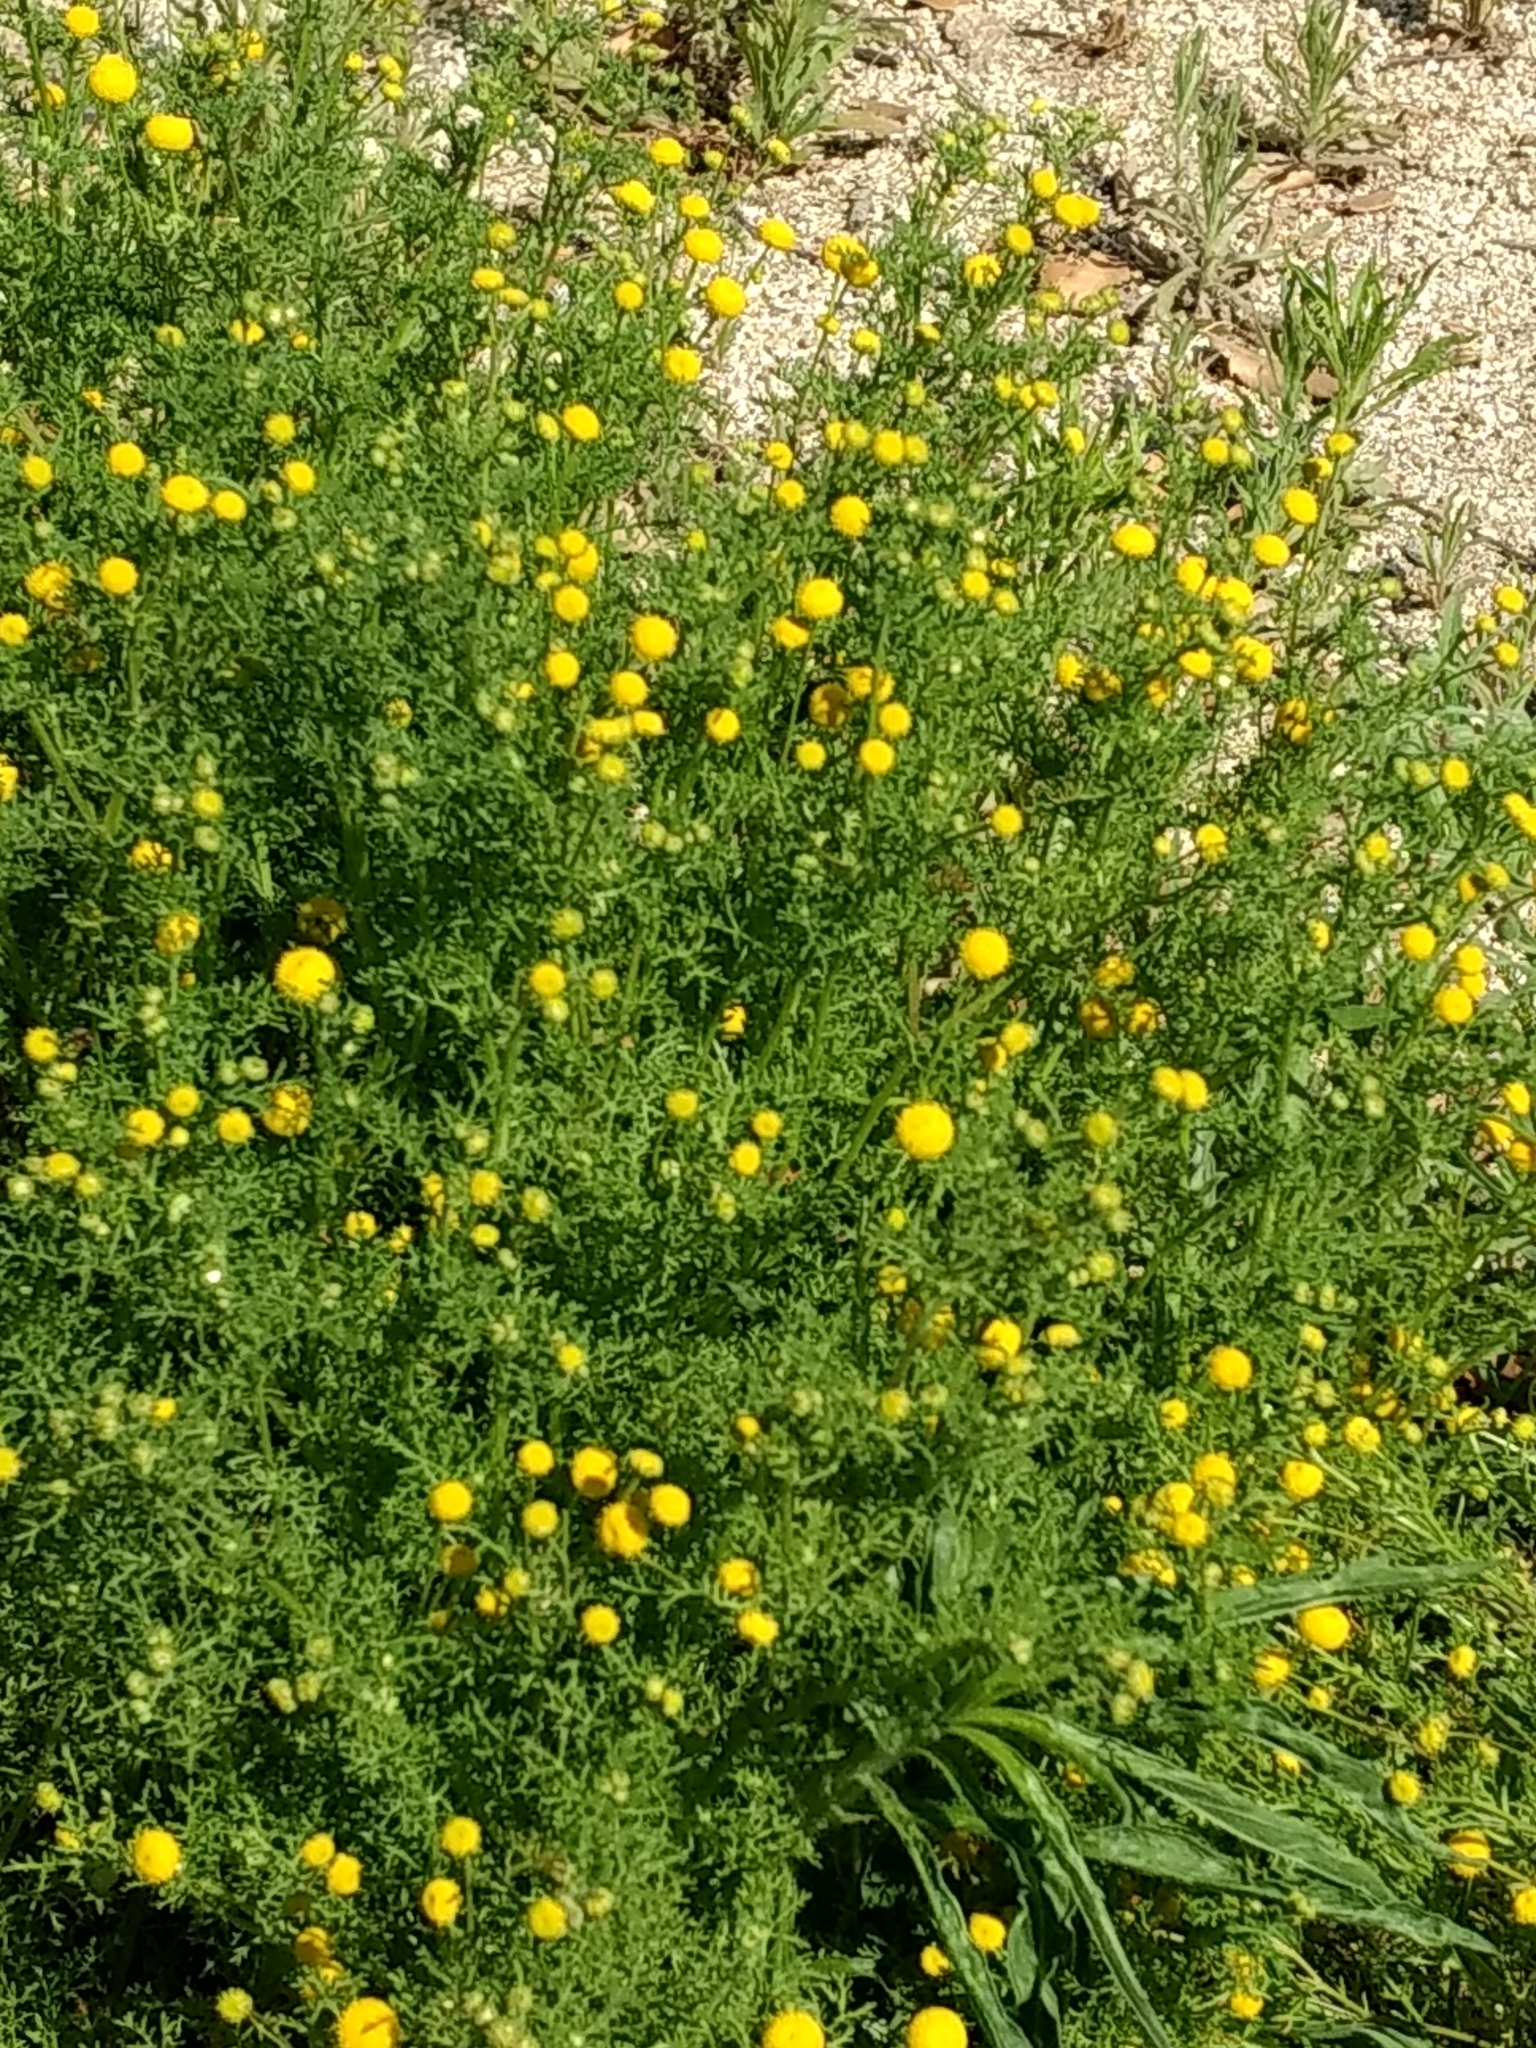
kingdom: Plantae
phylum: Tracheophyta
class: Magnoliopsida
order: Asterales
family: Asteraceae
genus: Oncosiphon
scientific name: Oncosiphon pilulifer
